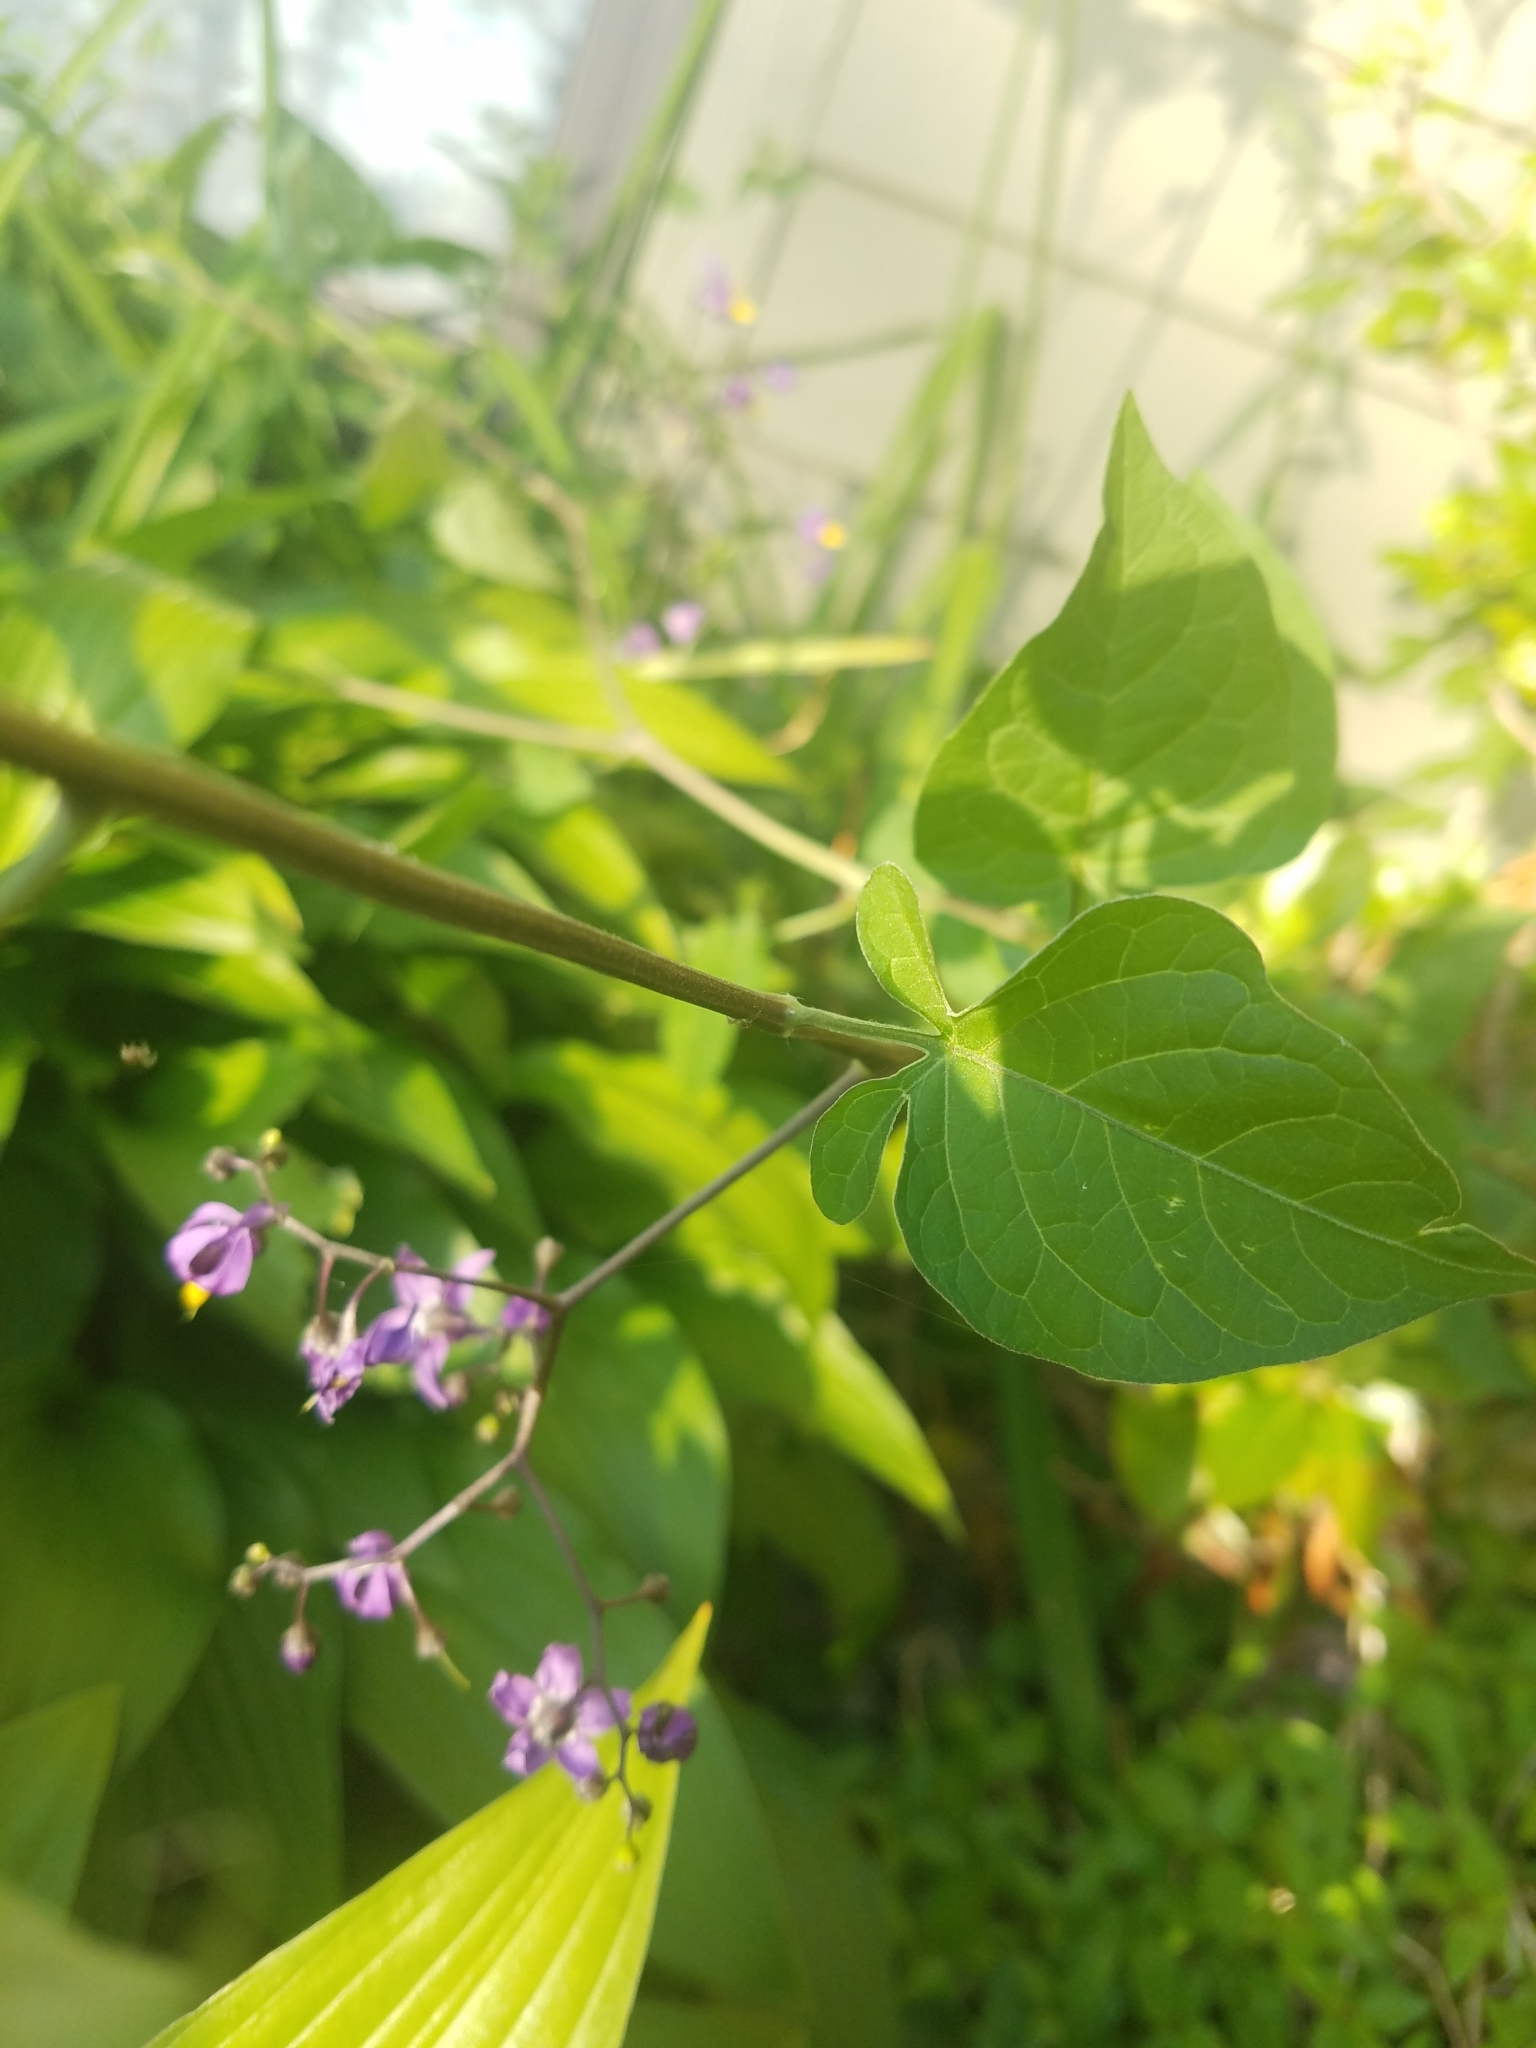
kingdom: Plantae
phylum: Tracheophyta
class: Magnoliopsida
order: Solanales
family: Solanaceae
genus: Solanum
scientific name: Solanum dulcamara
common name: Climbing nightshade
